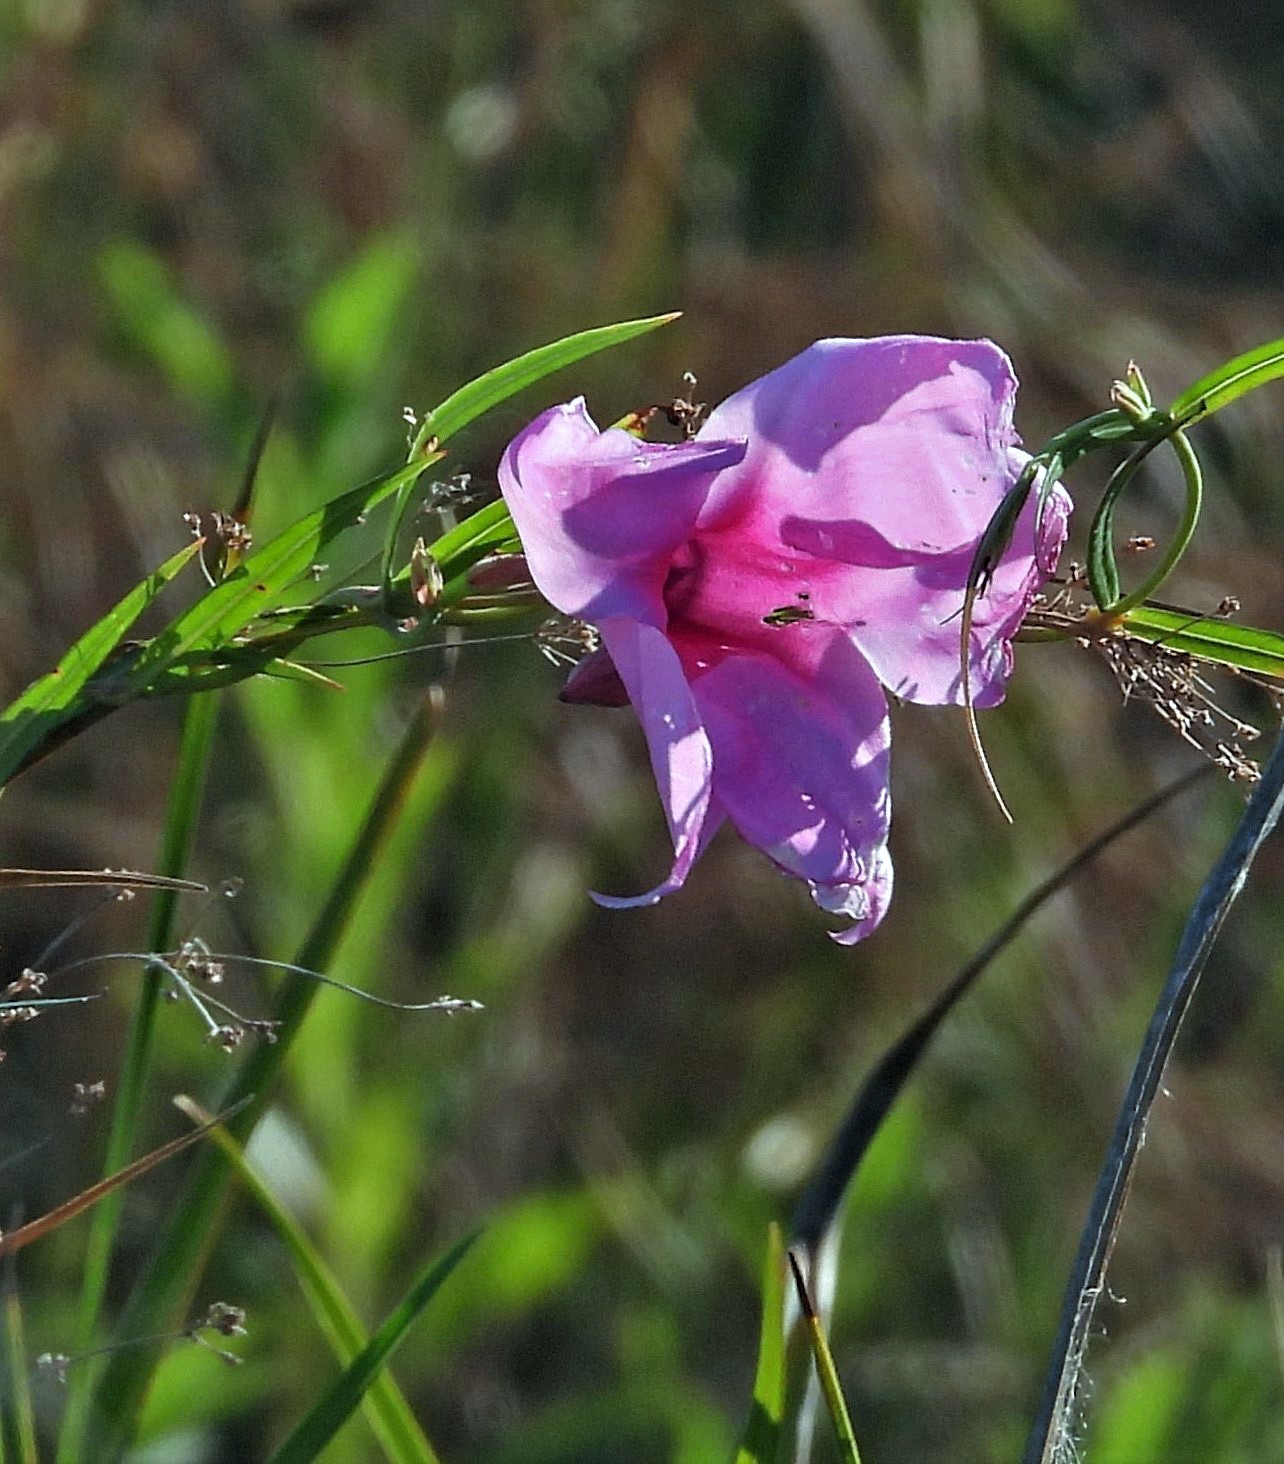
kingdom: Plantae
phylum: Tracheophyta
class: Magnoliopsida
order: Gentianales
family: Apocynaceae
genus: Rhabdadenia
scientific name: Rhabdadenia ragonesei
